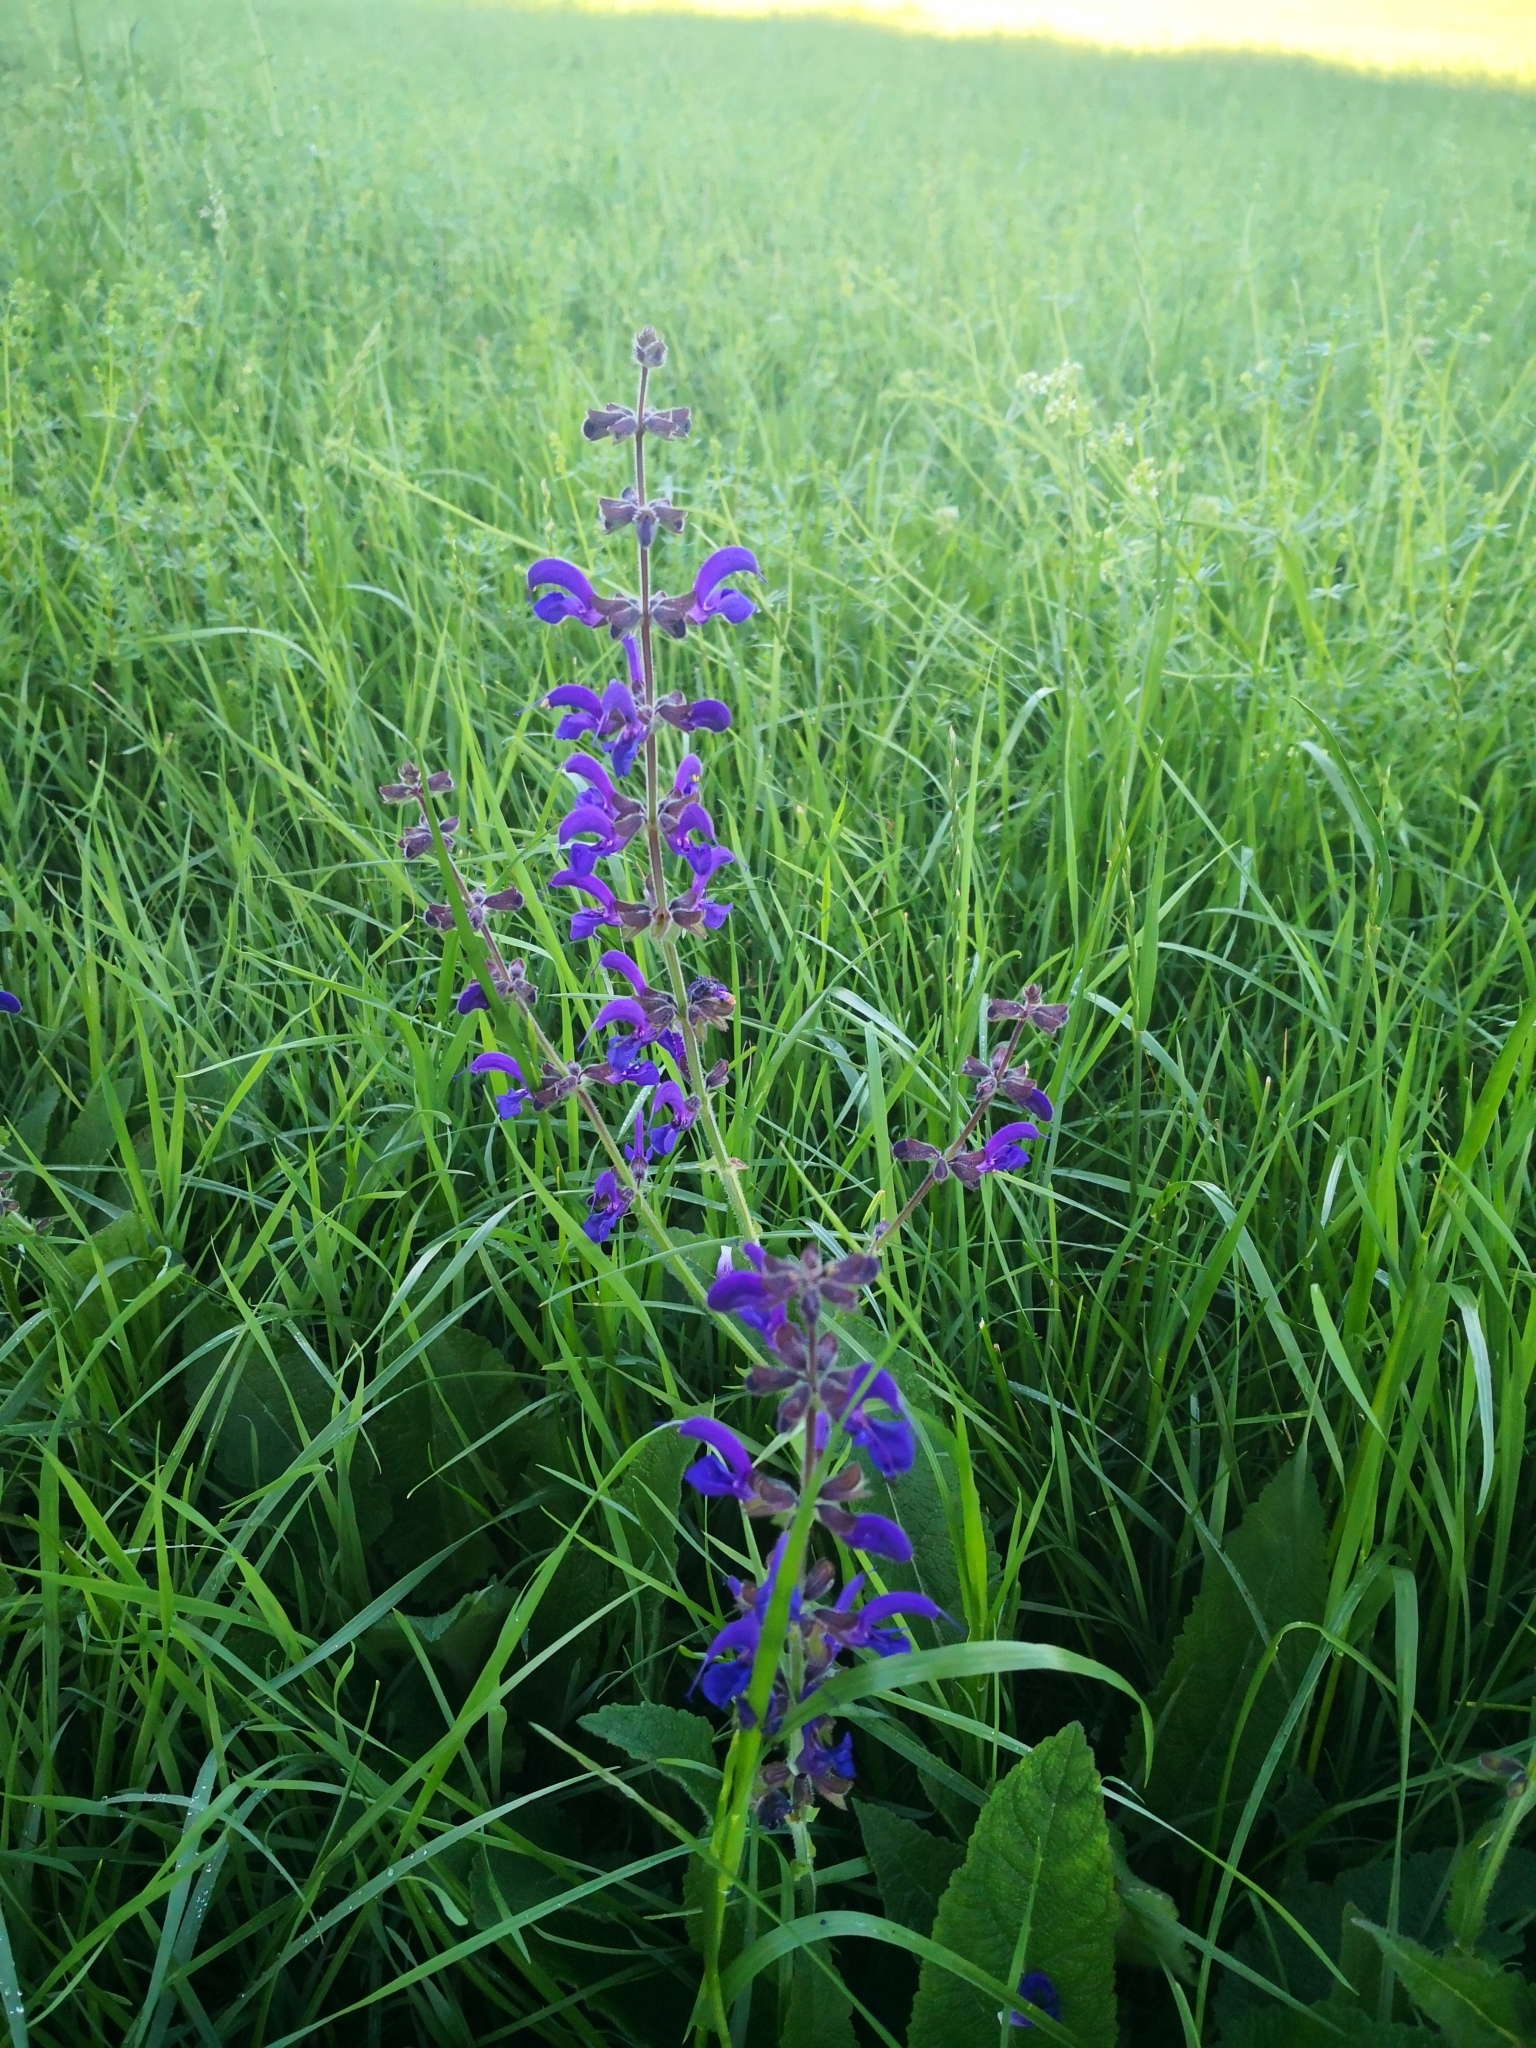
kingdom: Plantae
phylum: Tracheophyta
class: Magnoliopsida
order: Lamiales
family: Lamiaceae
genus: Salvia
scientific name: Salvia pratensis
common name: Meadow sage
